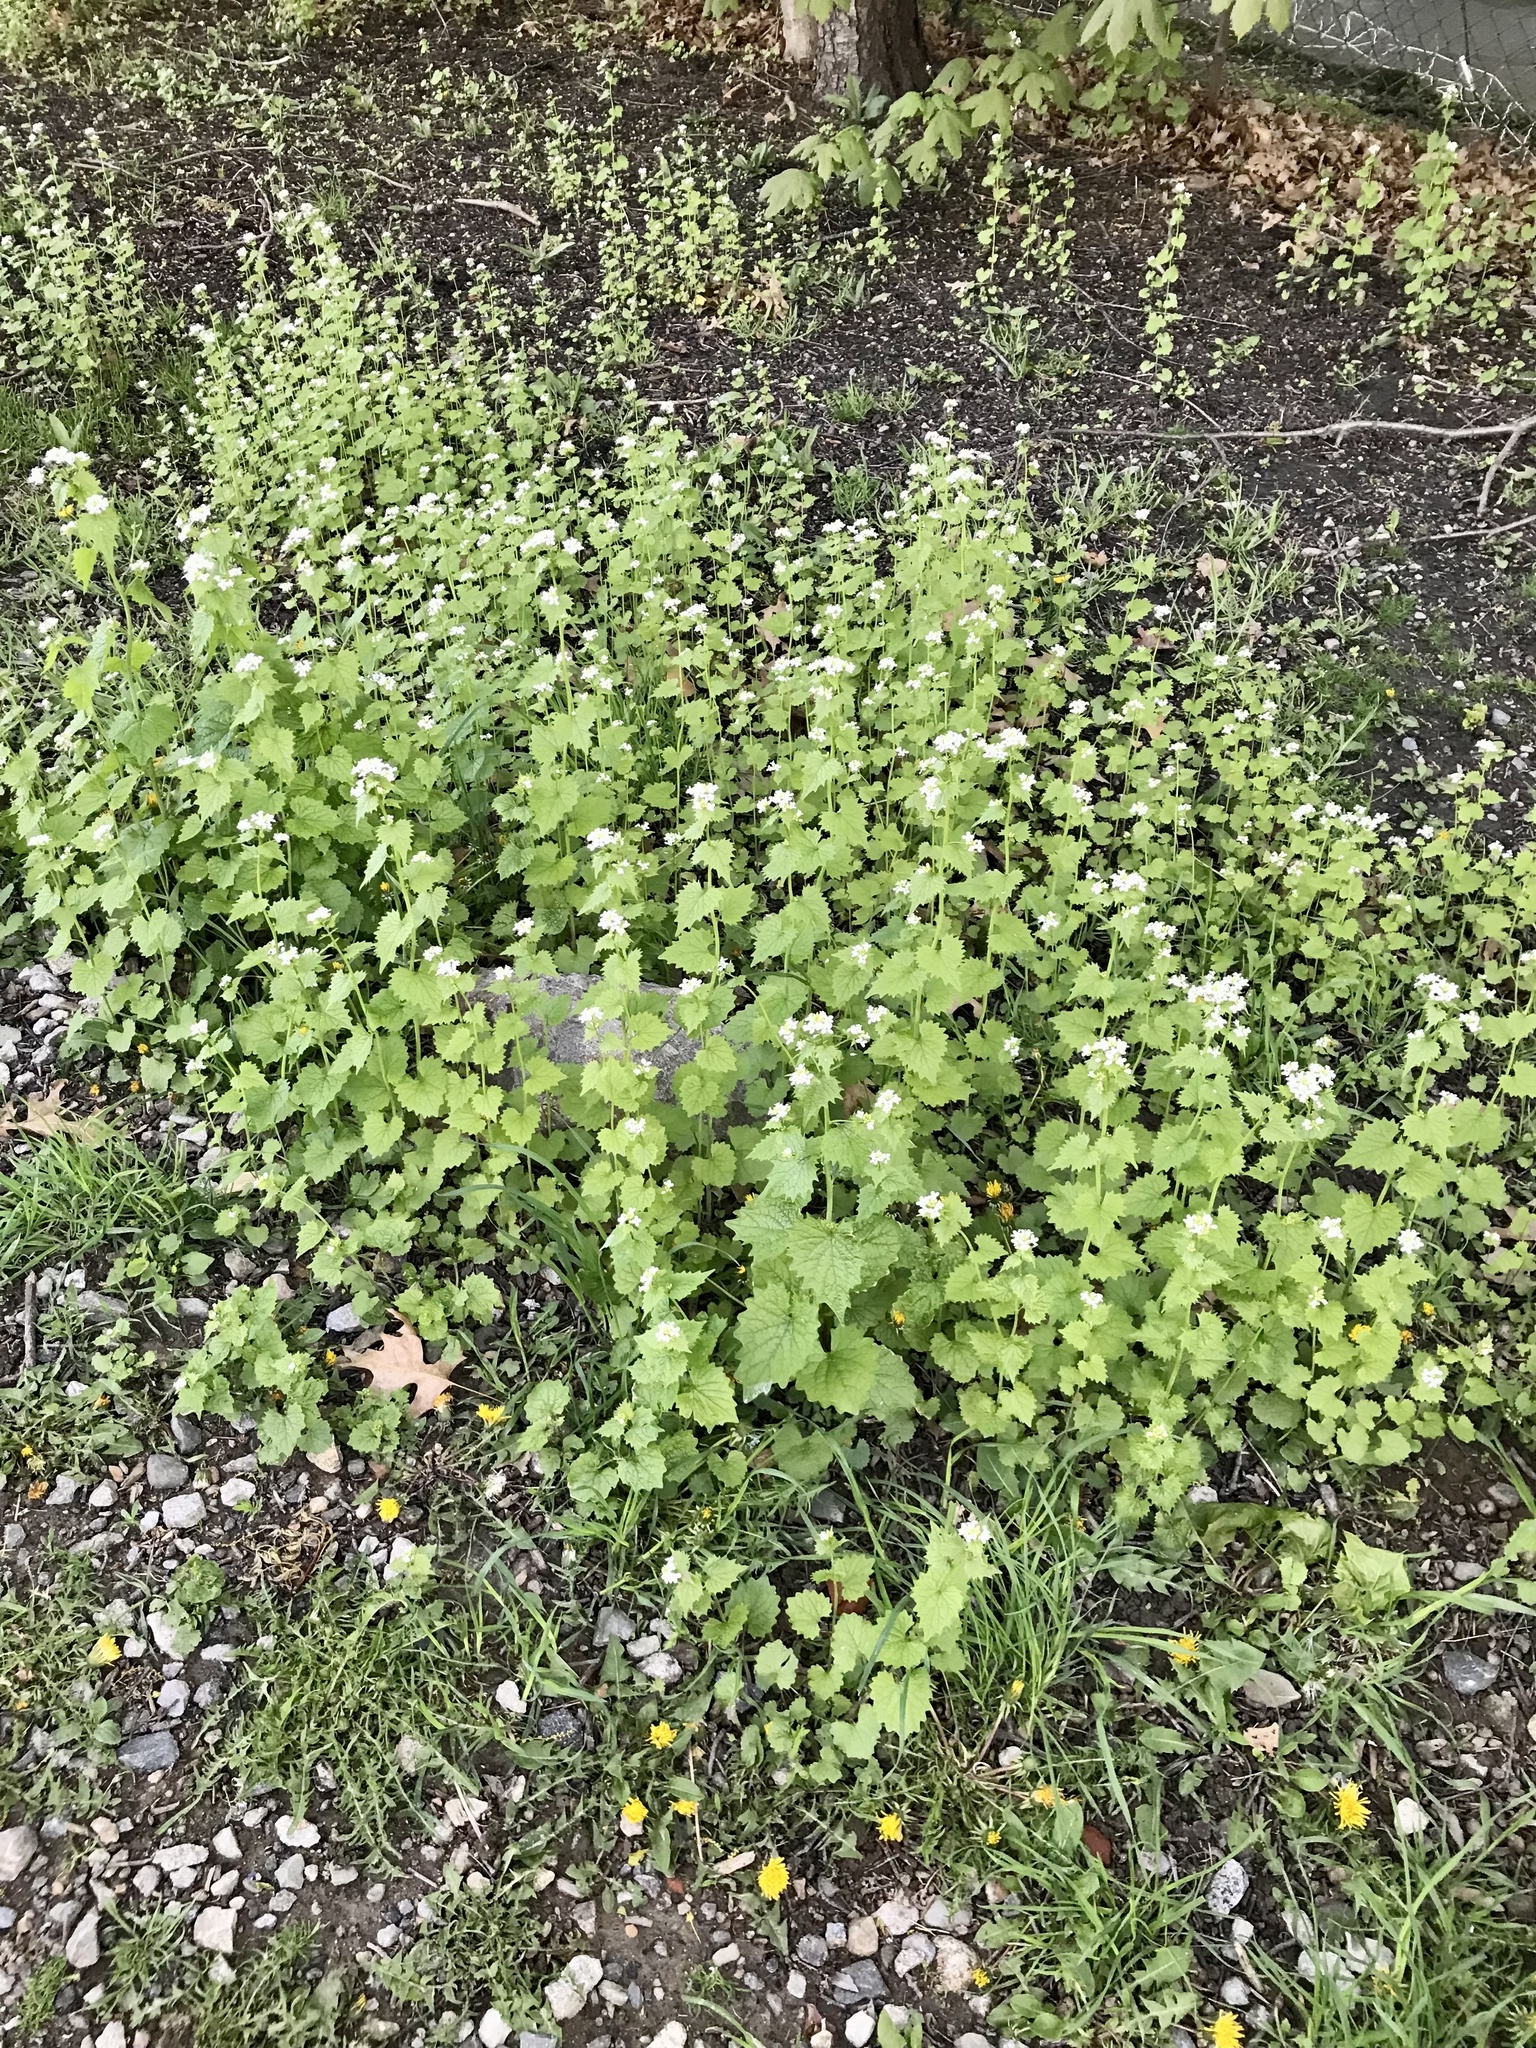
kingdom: Plantae
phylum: Tracheophyta
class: Magnoliopsida
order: Brassicales
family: Brassicaceae
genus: Alliaria
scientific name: Alliaria petiolata
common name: Garlic mustard
